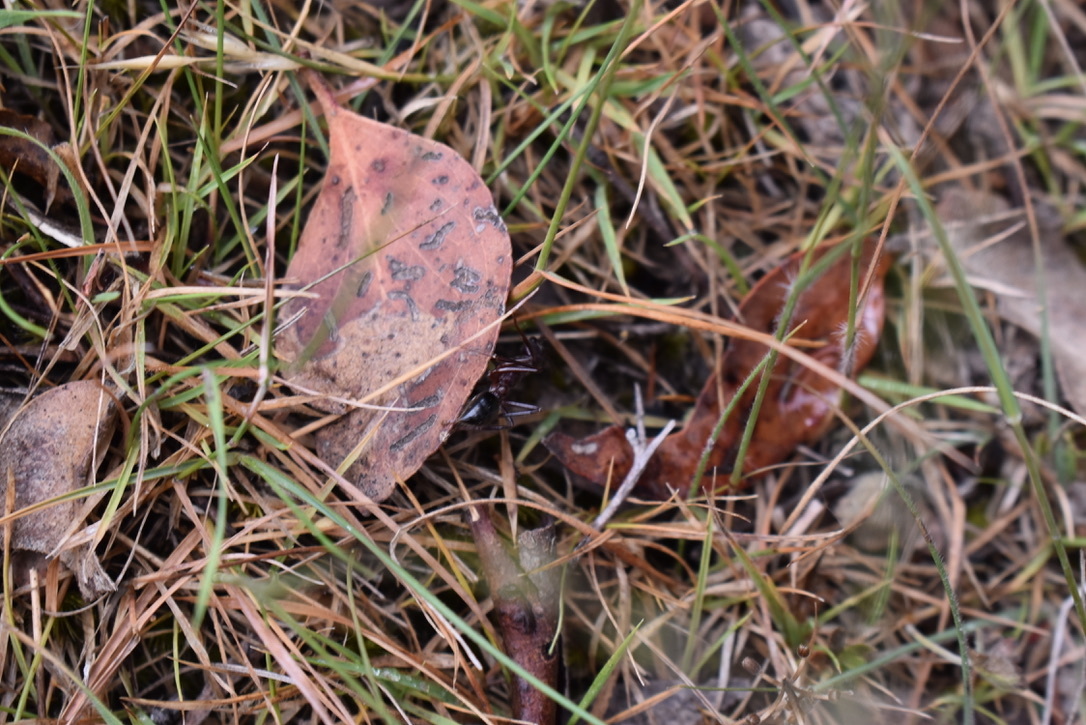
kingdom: Animalia
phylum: Arthropoda
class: Insecta
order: Hymenoptera
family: Formicidae
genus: Myrmecia
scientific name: Myrmecia forficata
